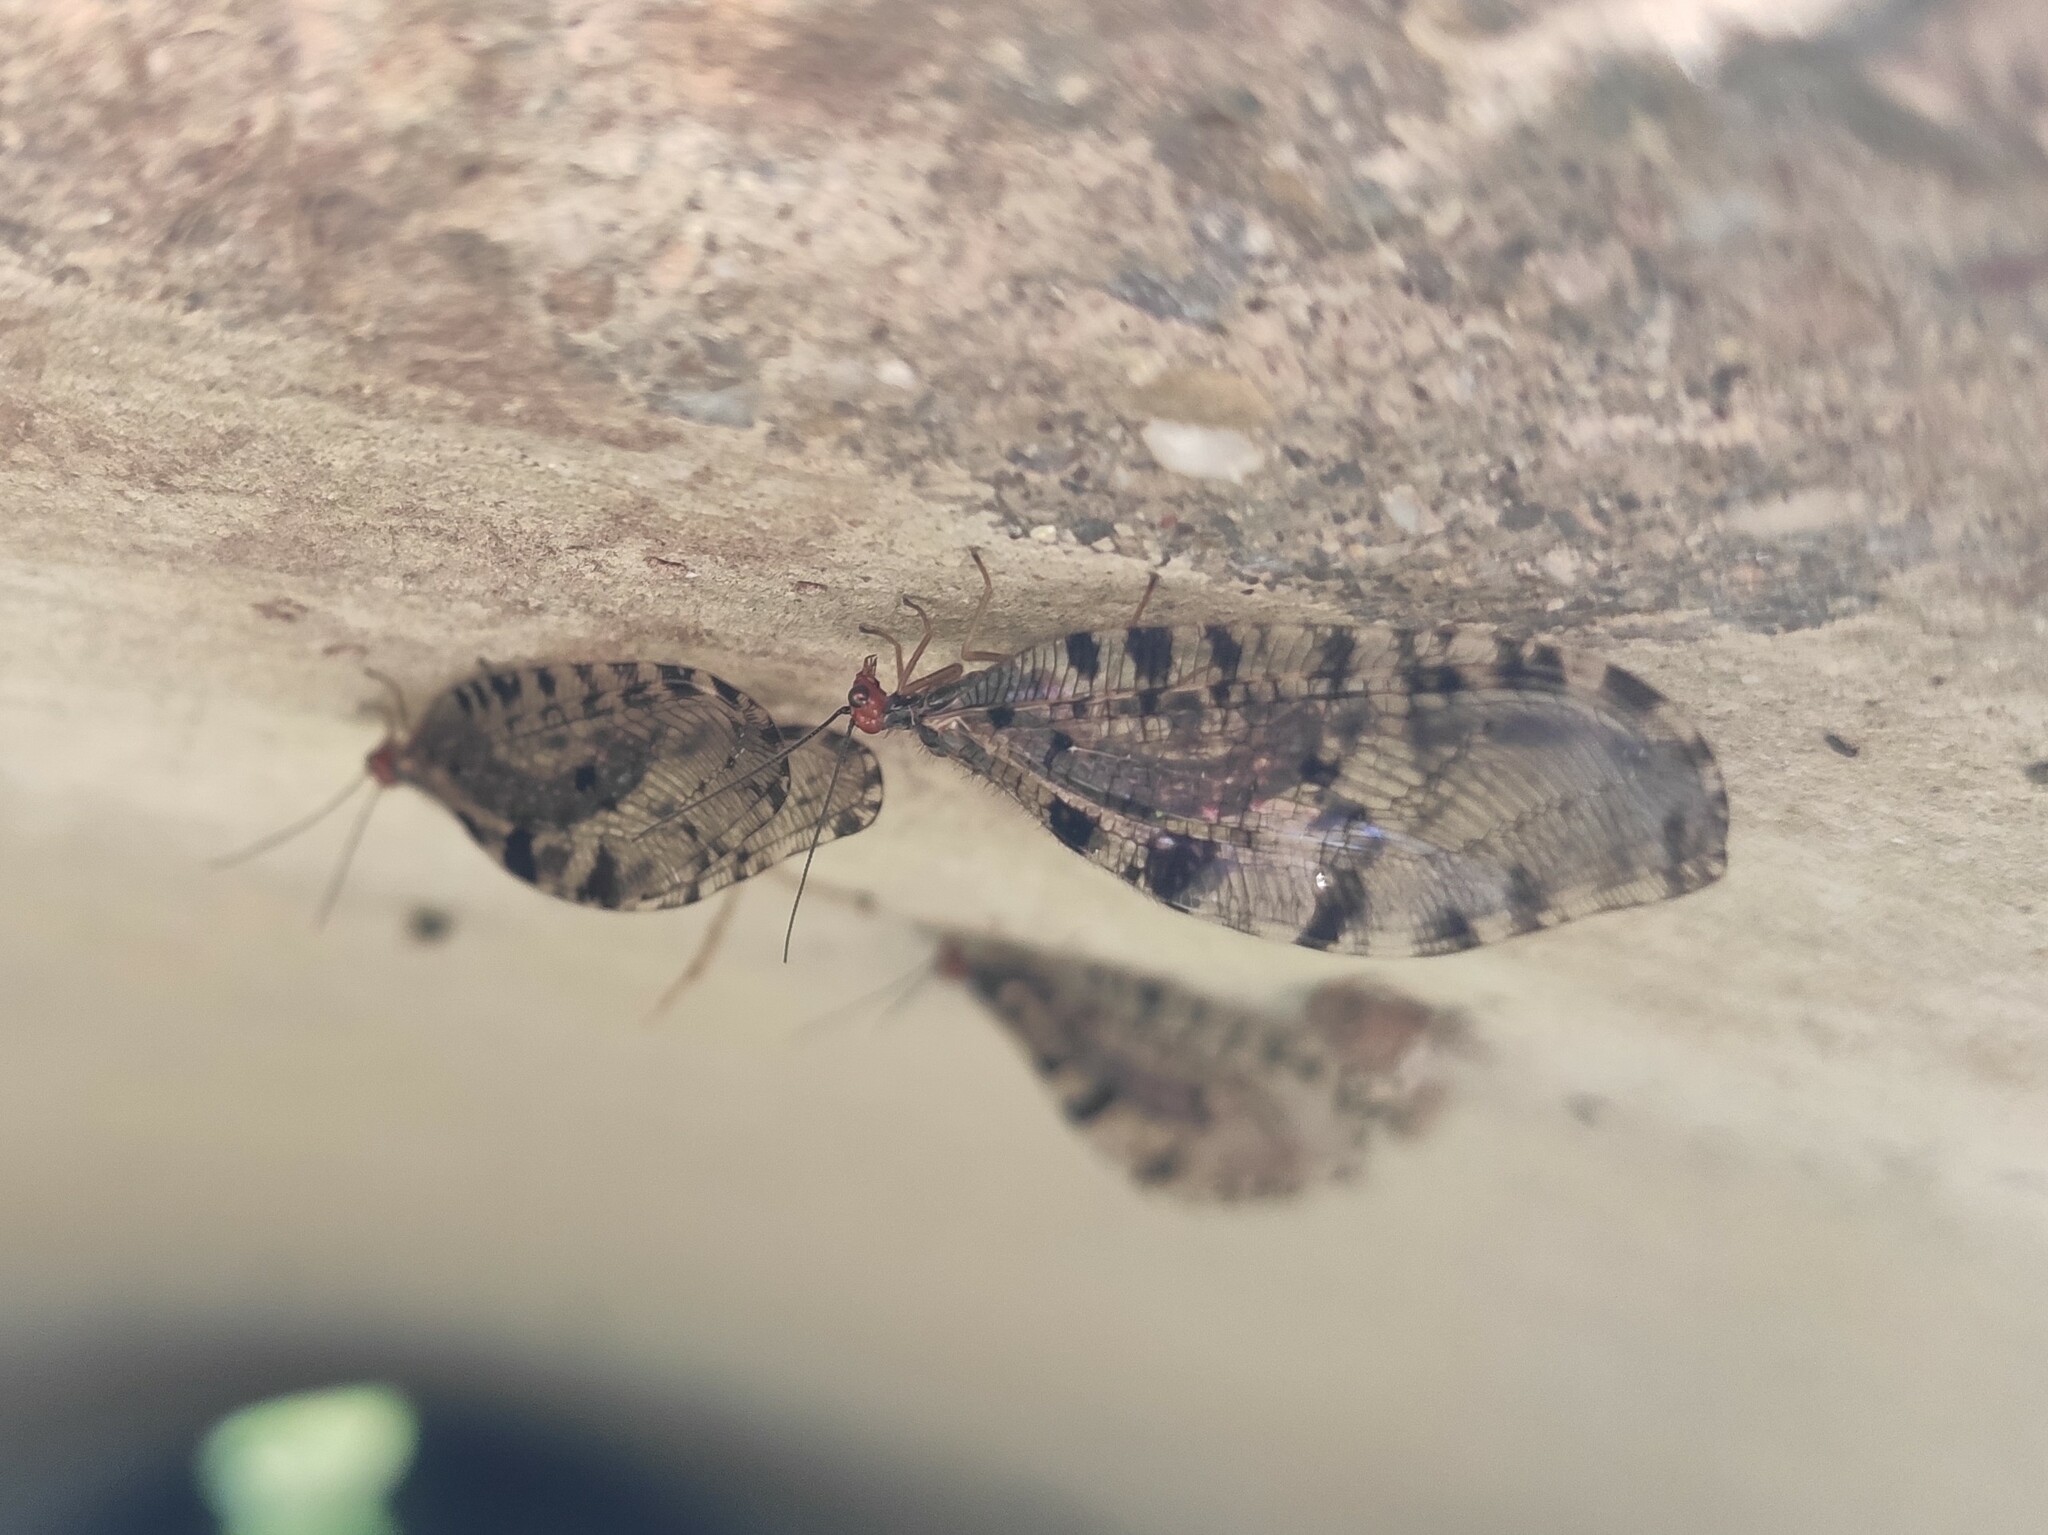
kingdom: Animalia
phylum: Arthropoda
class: Insecta
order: Neuroptera
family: Osmylidae
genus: Osmylus
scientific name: Osmylus fulvicephalus
